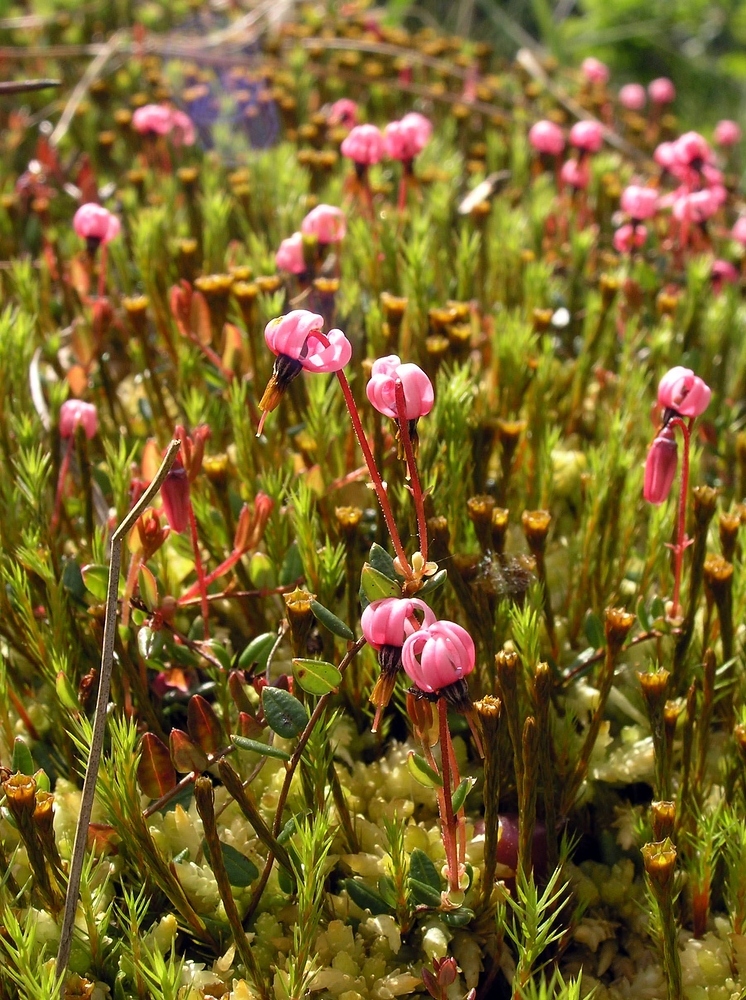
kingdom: Plantae
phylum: Tracheophyta
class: Magnoliopsida
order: Ericales
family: Ericaceae
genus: Vaccinium
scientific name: Vaccinium oxycoccos
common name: Cranberry
